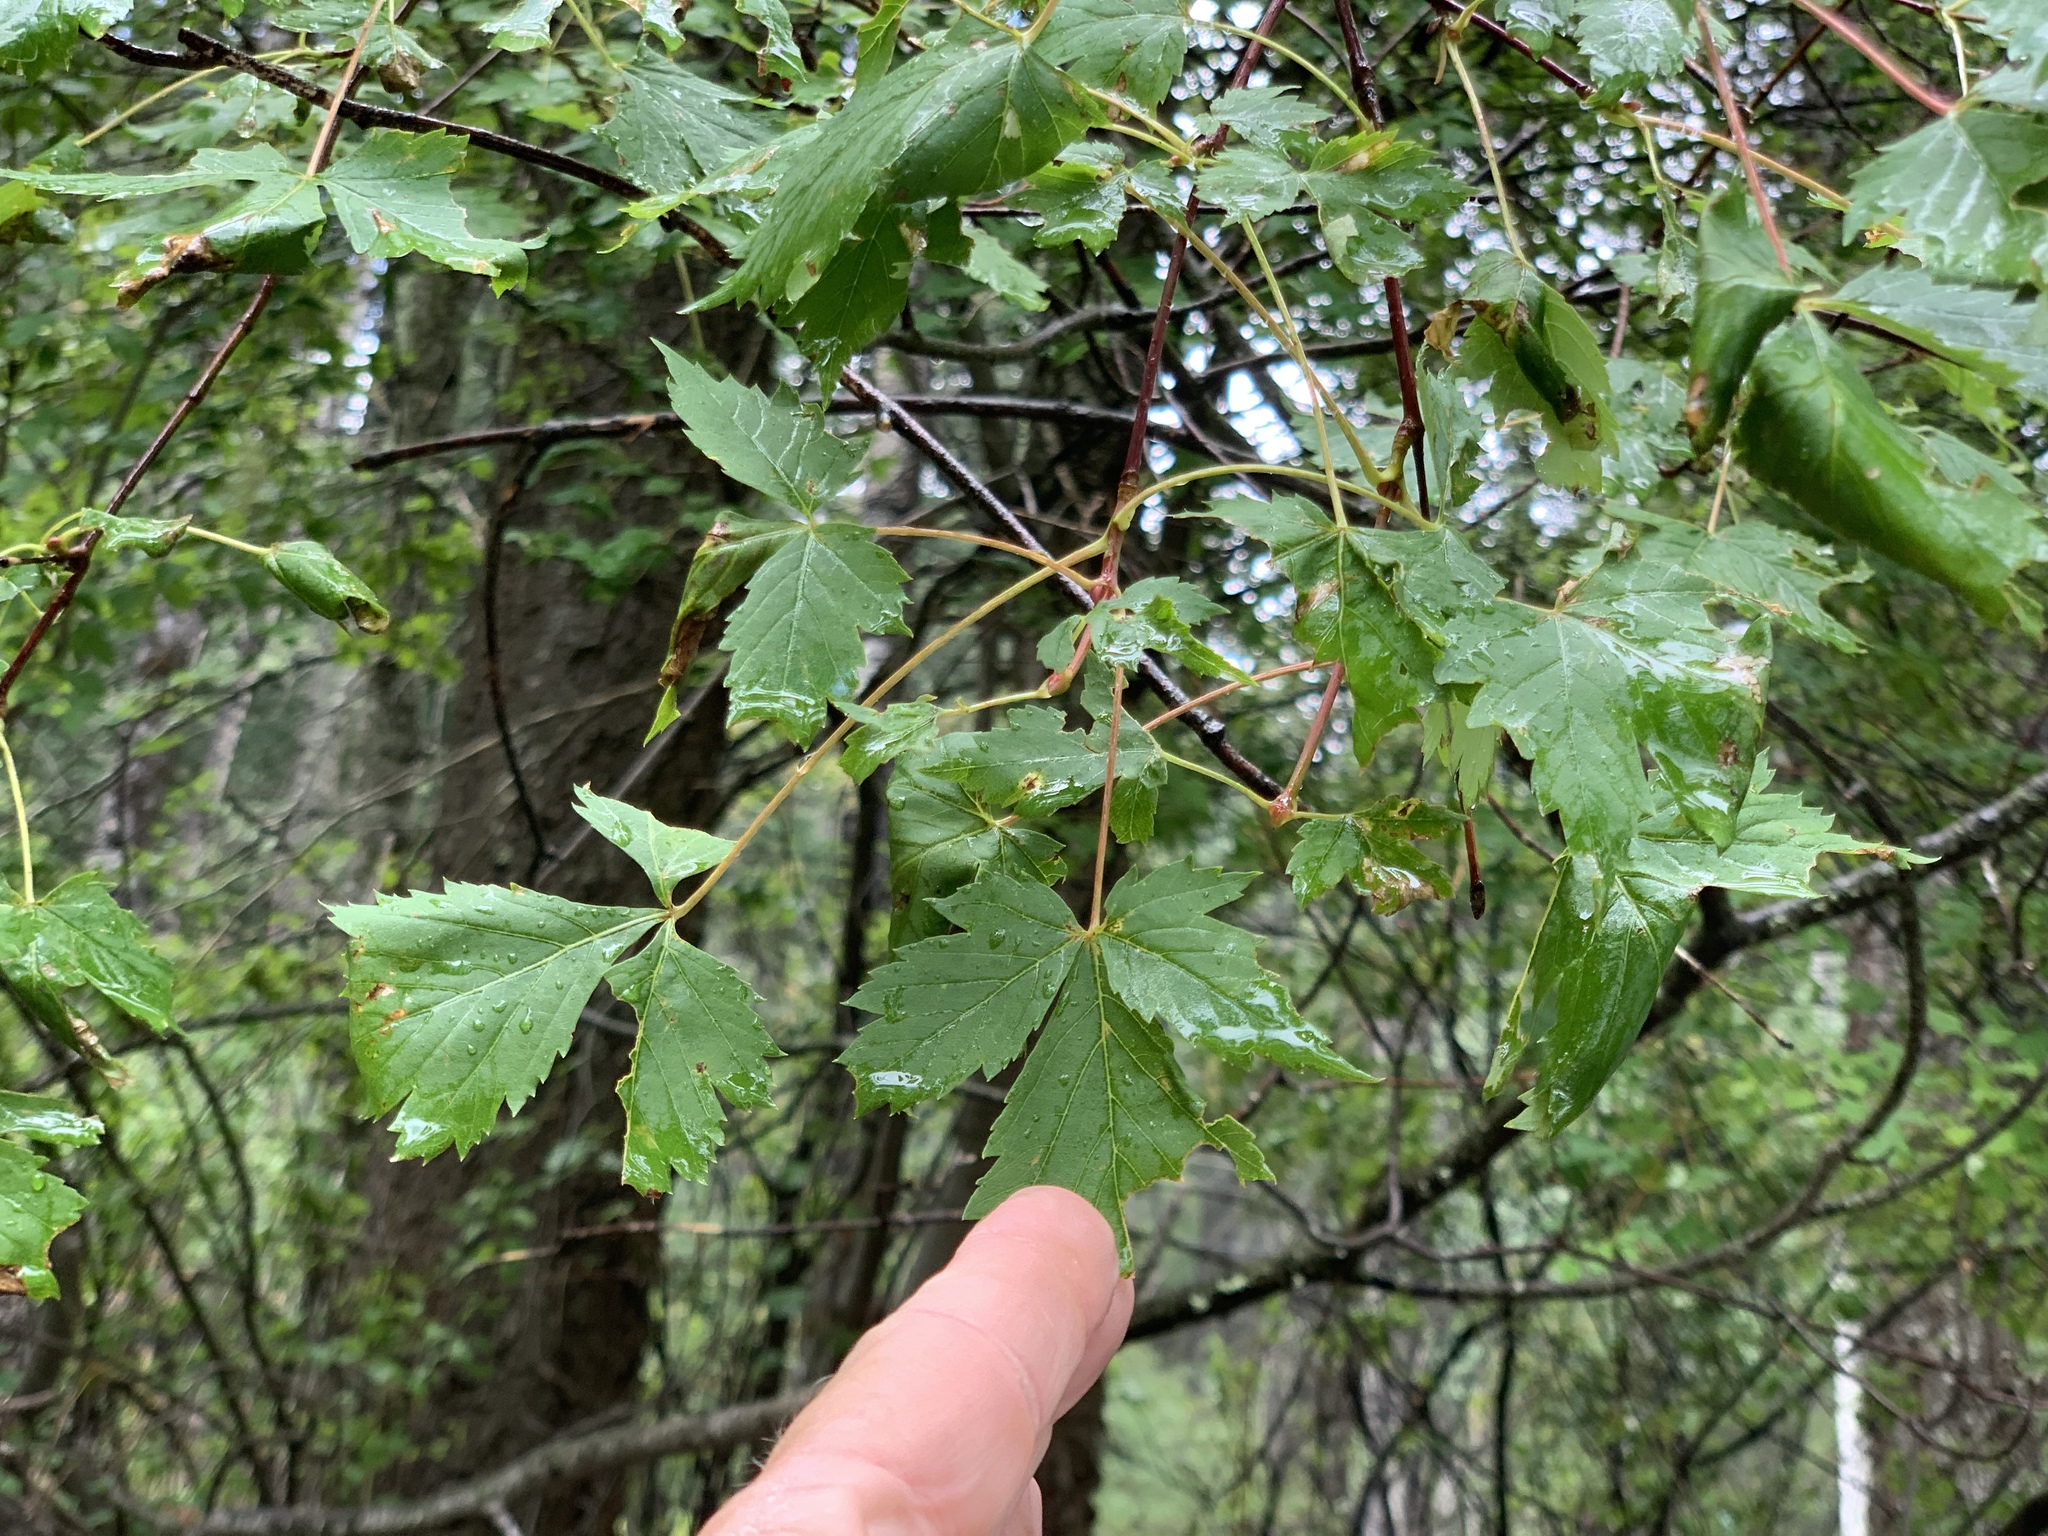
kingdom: Plantae
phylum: Tracheophyta
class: Magnoliopsida
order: Sapindales
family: Sapindaceae
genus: Acer
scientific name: Acer negundo
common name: Ashleaf maple
